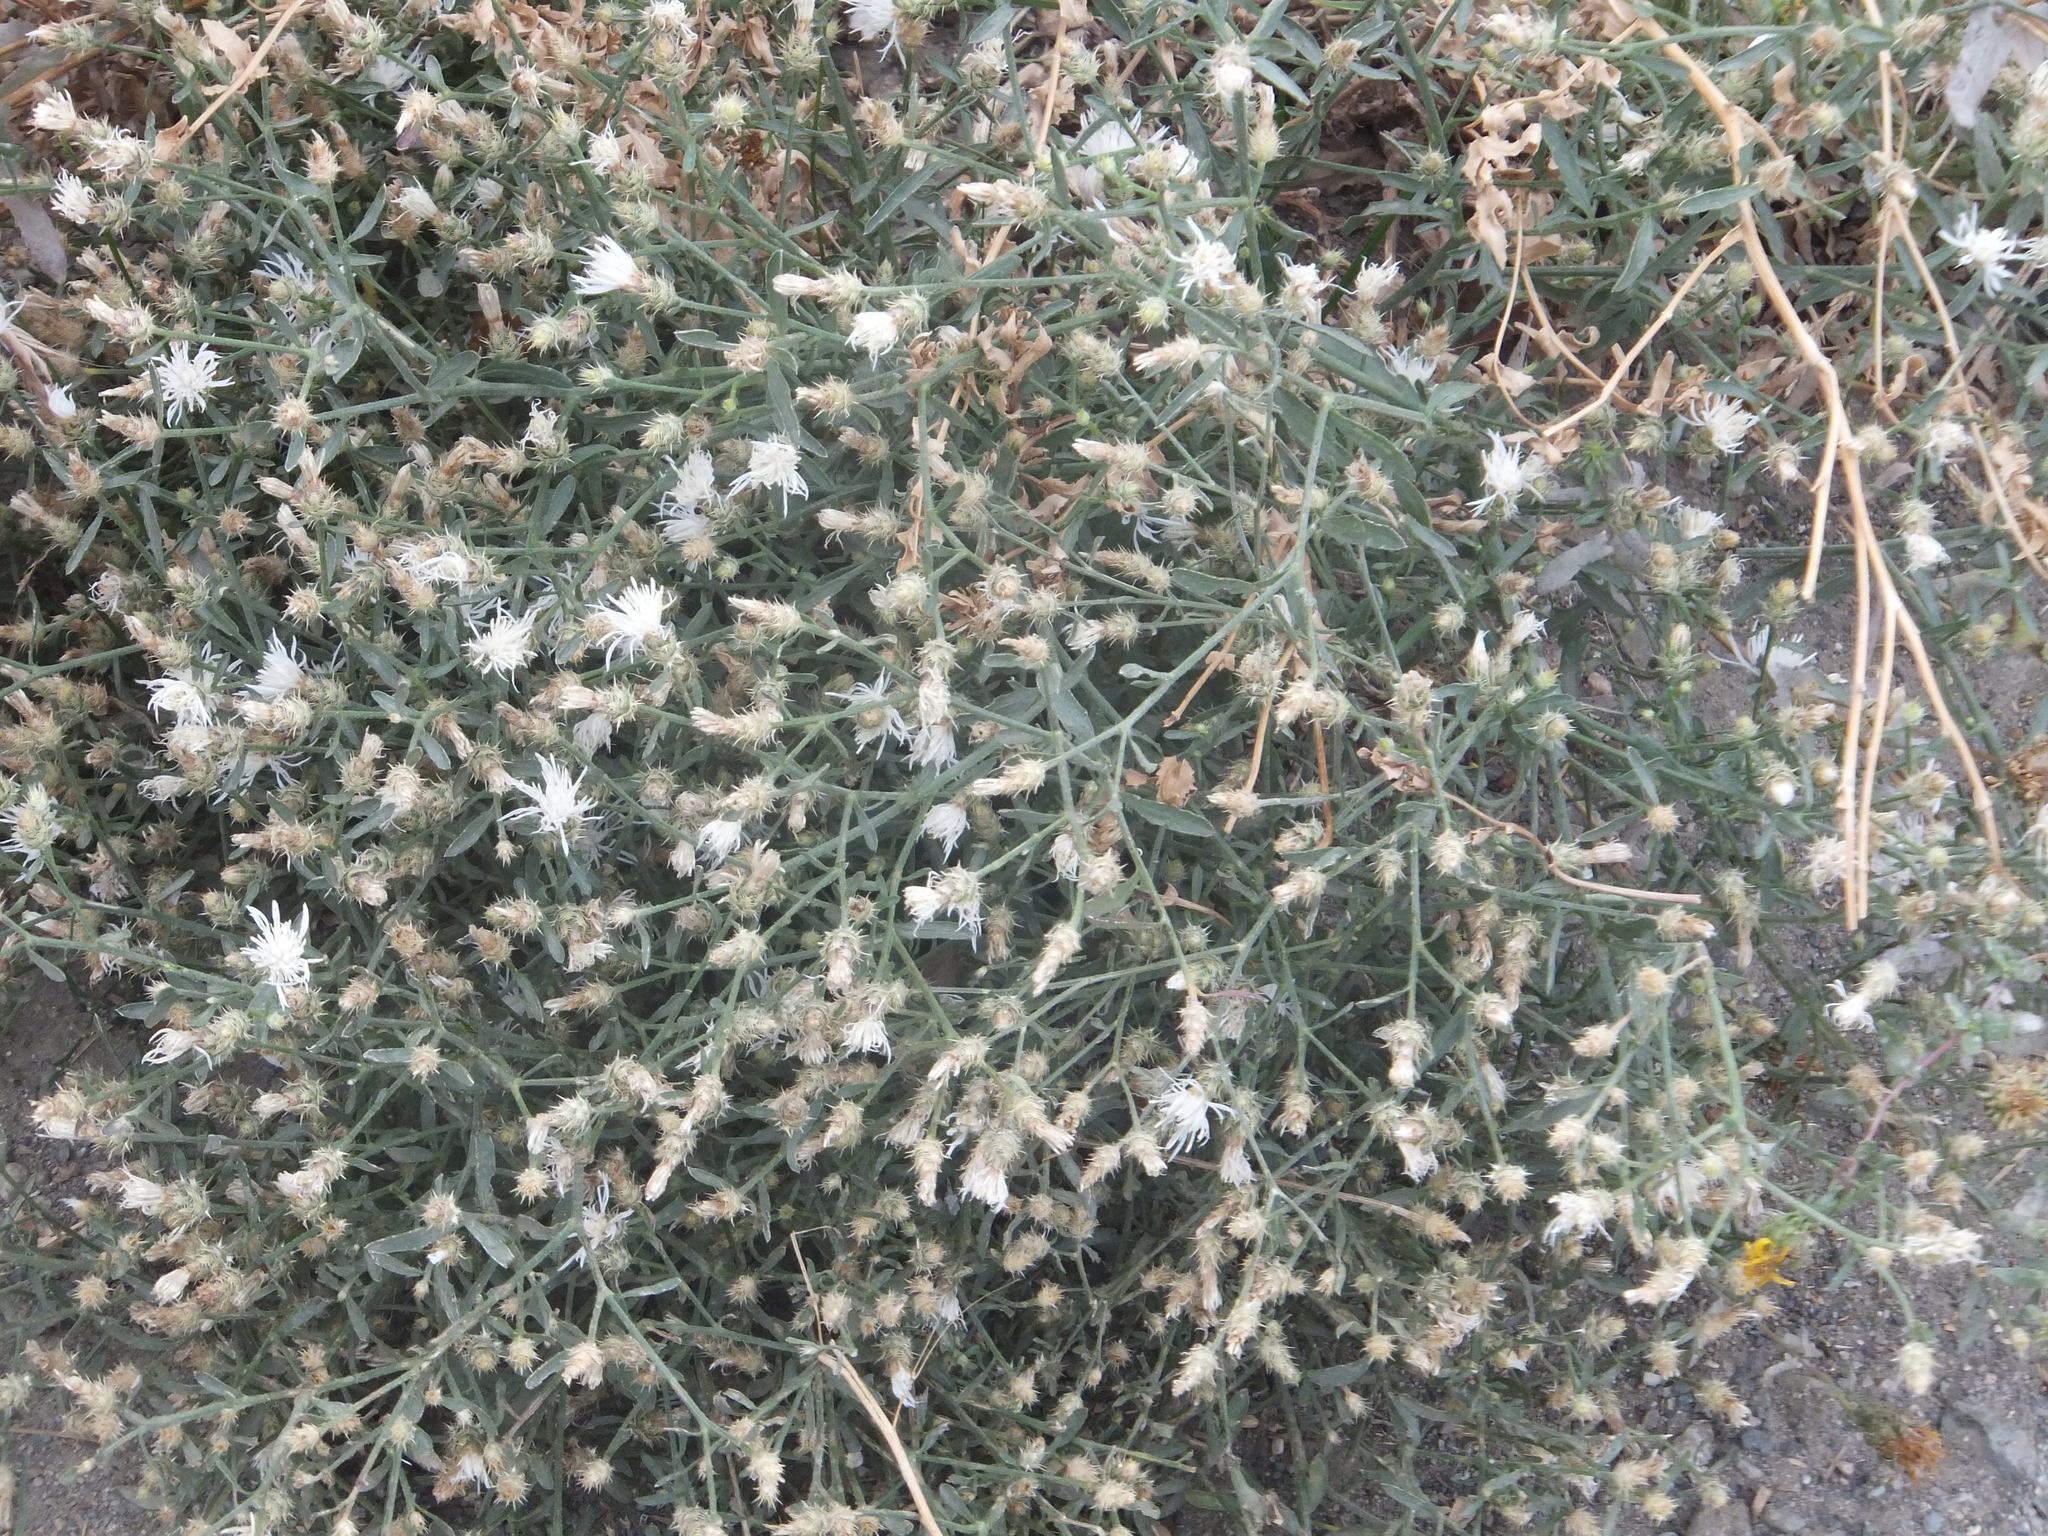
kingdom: Plantae
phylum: Tracheophyta
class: Magnoliopsida
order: Asterales
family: Asteraceae
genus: Centaurea
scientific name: Centaurea diffusa
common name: Diffuse knapweed
